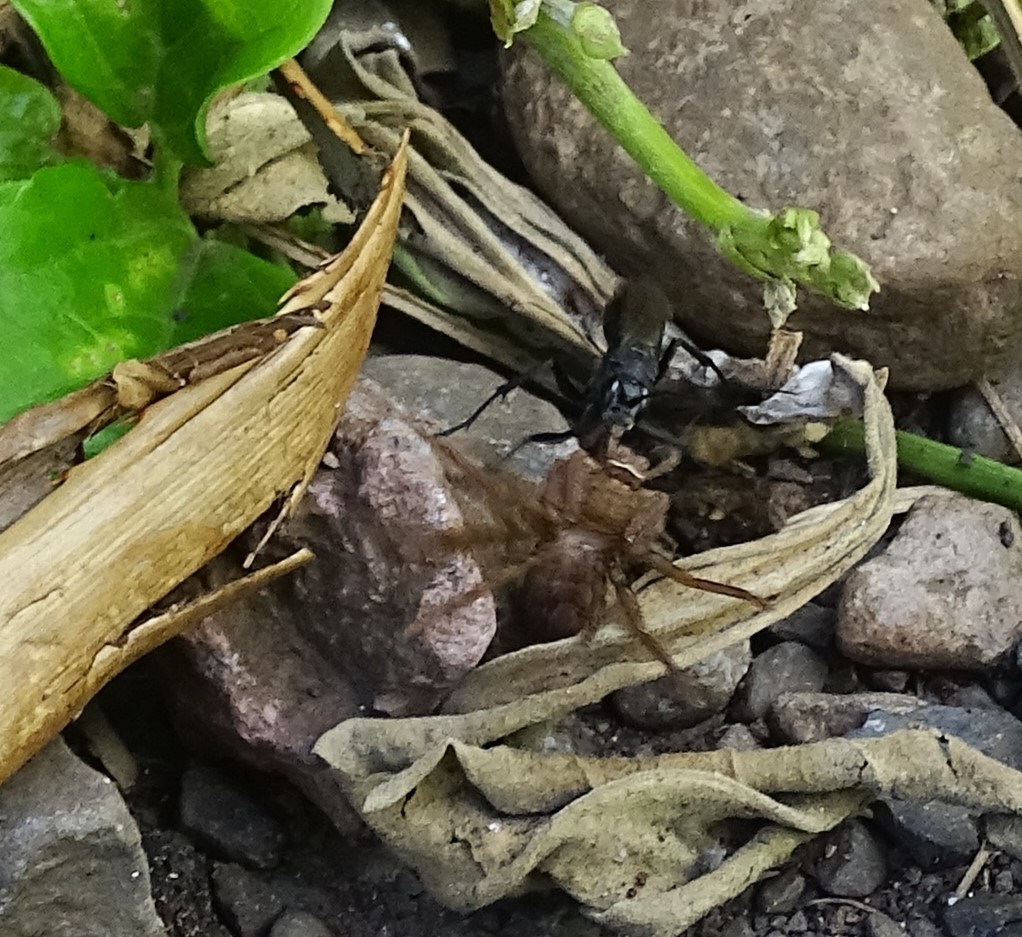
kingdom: Animalia
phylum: Arthropoda
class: Insecta
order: Hymenoptera
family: Pompilidae
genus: Tachypompilus
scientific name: Tachypompilus analis
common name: Spider wasp
